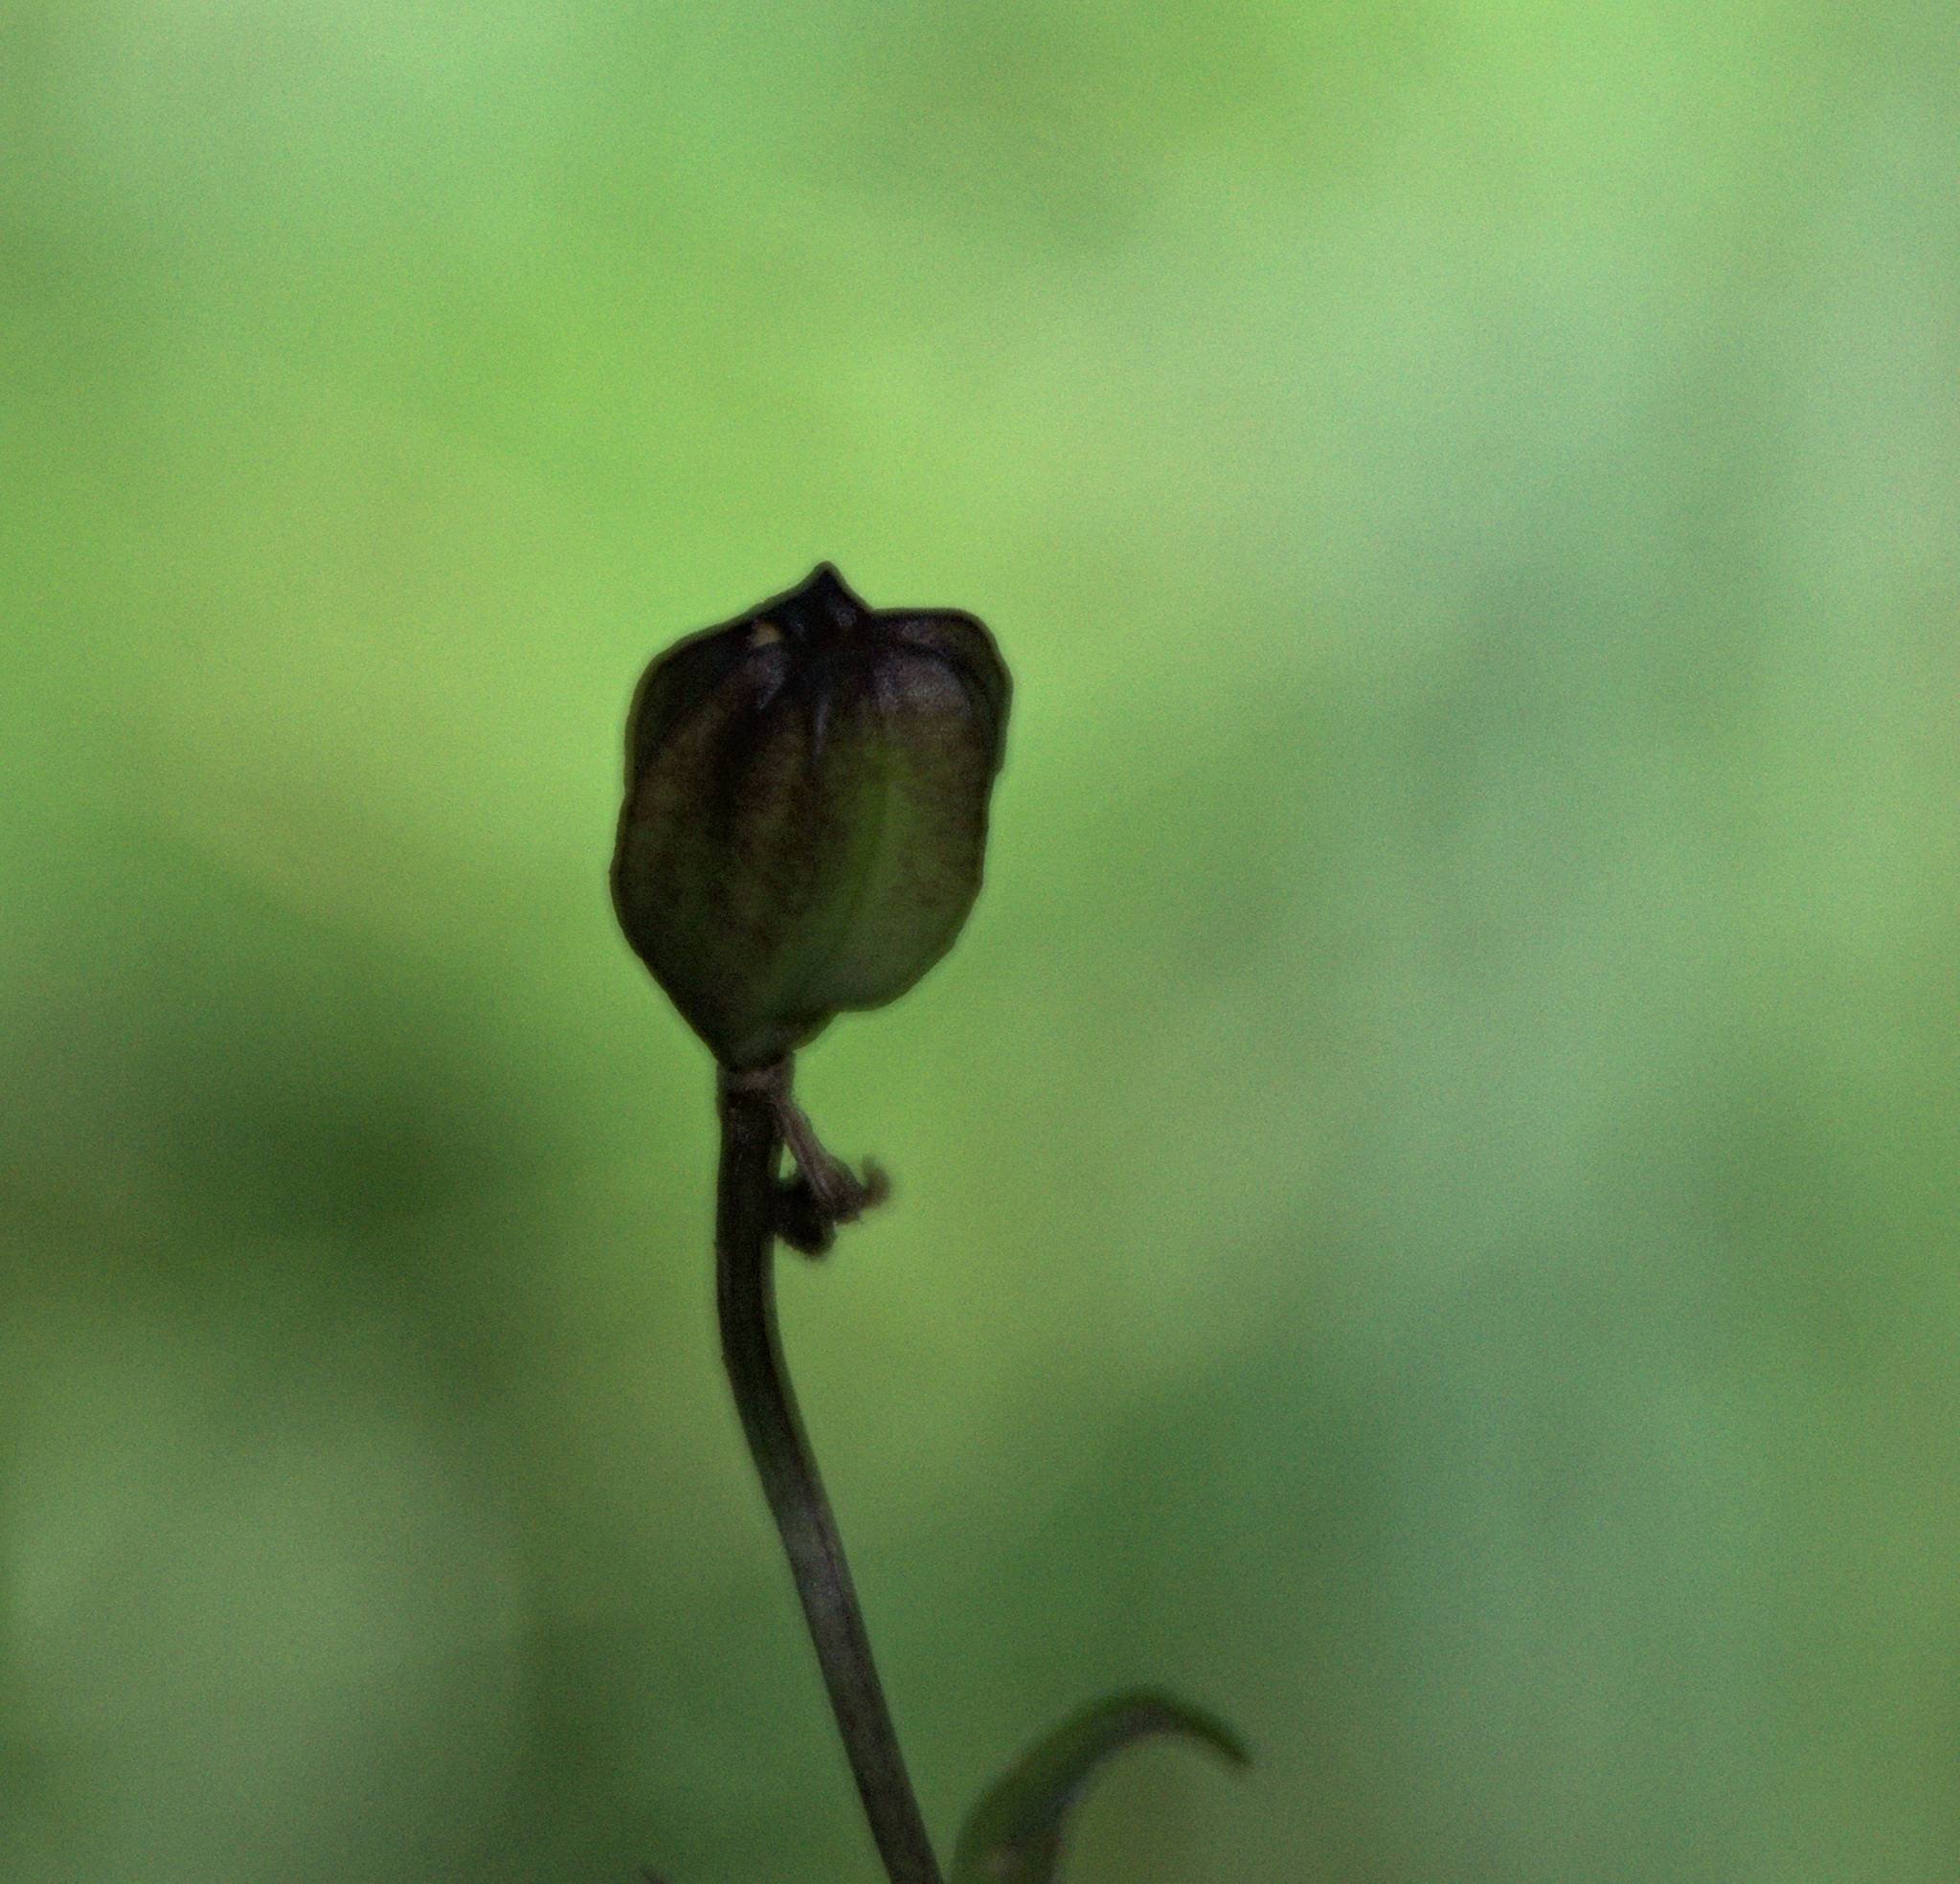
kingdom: Plantae
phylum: Tracheophyta
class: Liliopsida
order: Liliales
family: Liliaceae
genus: Lilium
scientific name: Lilium martagon
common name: Martagon lily
